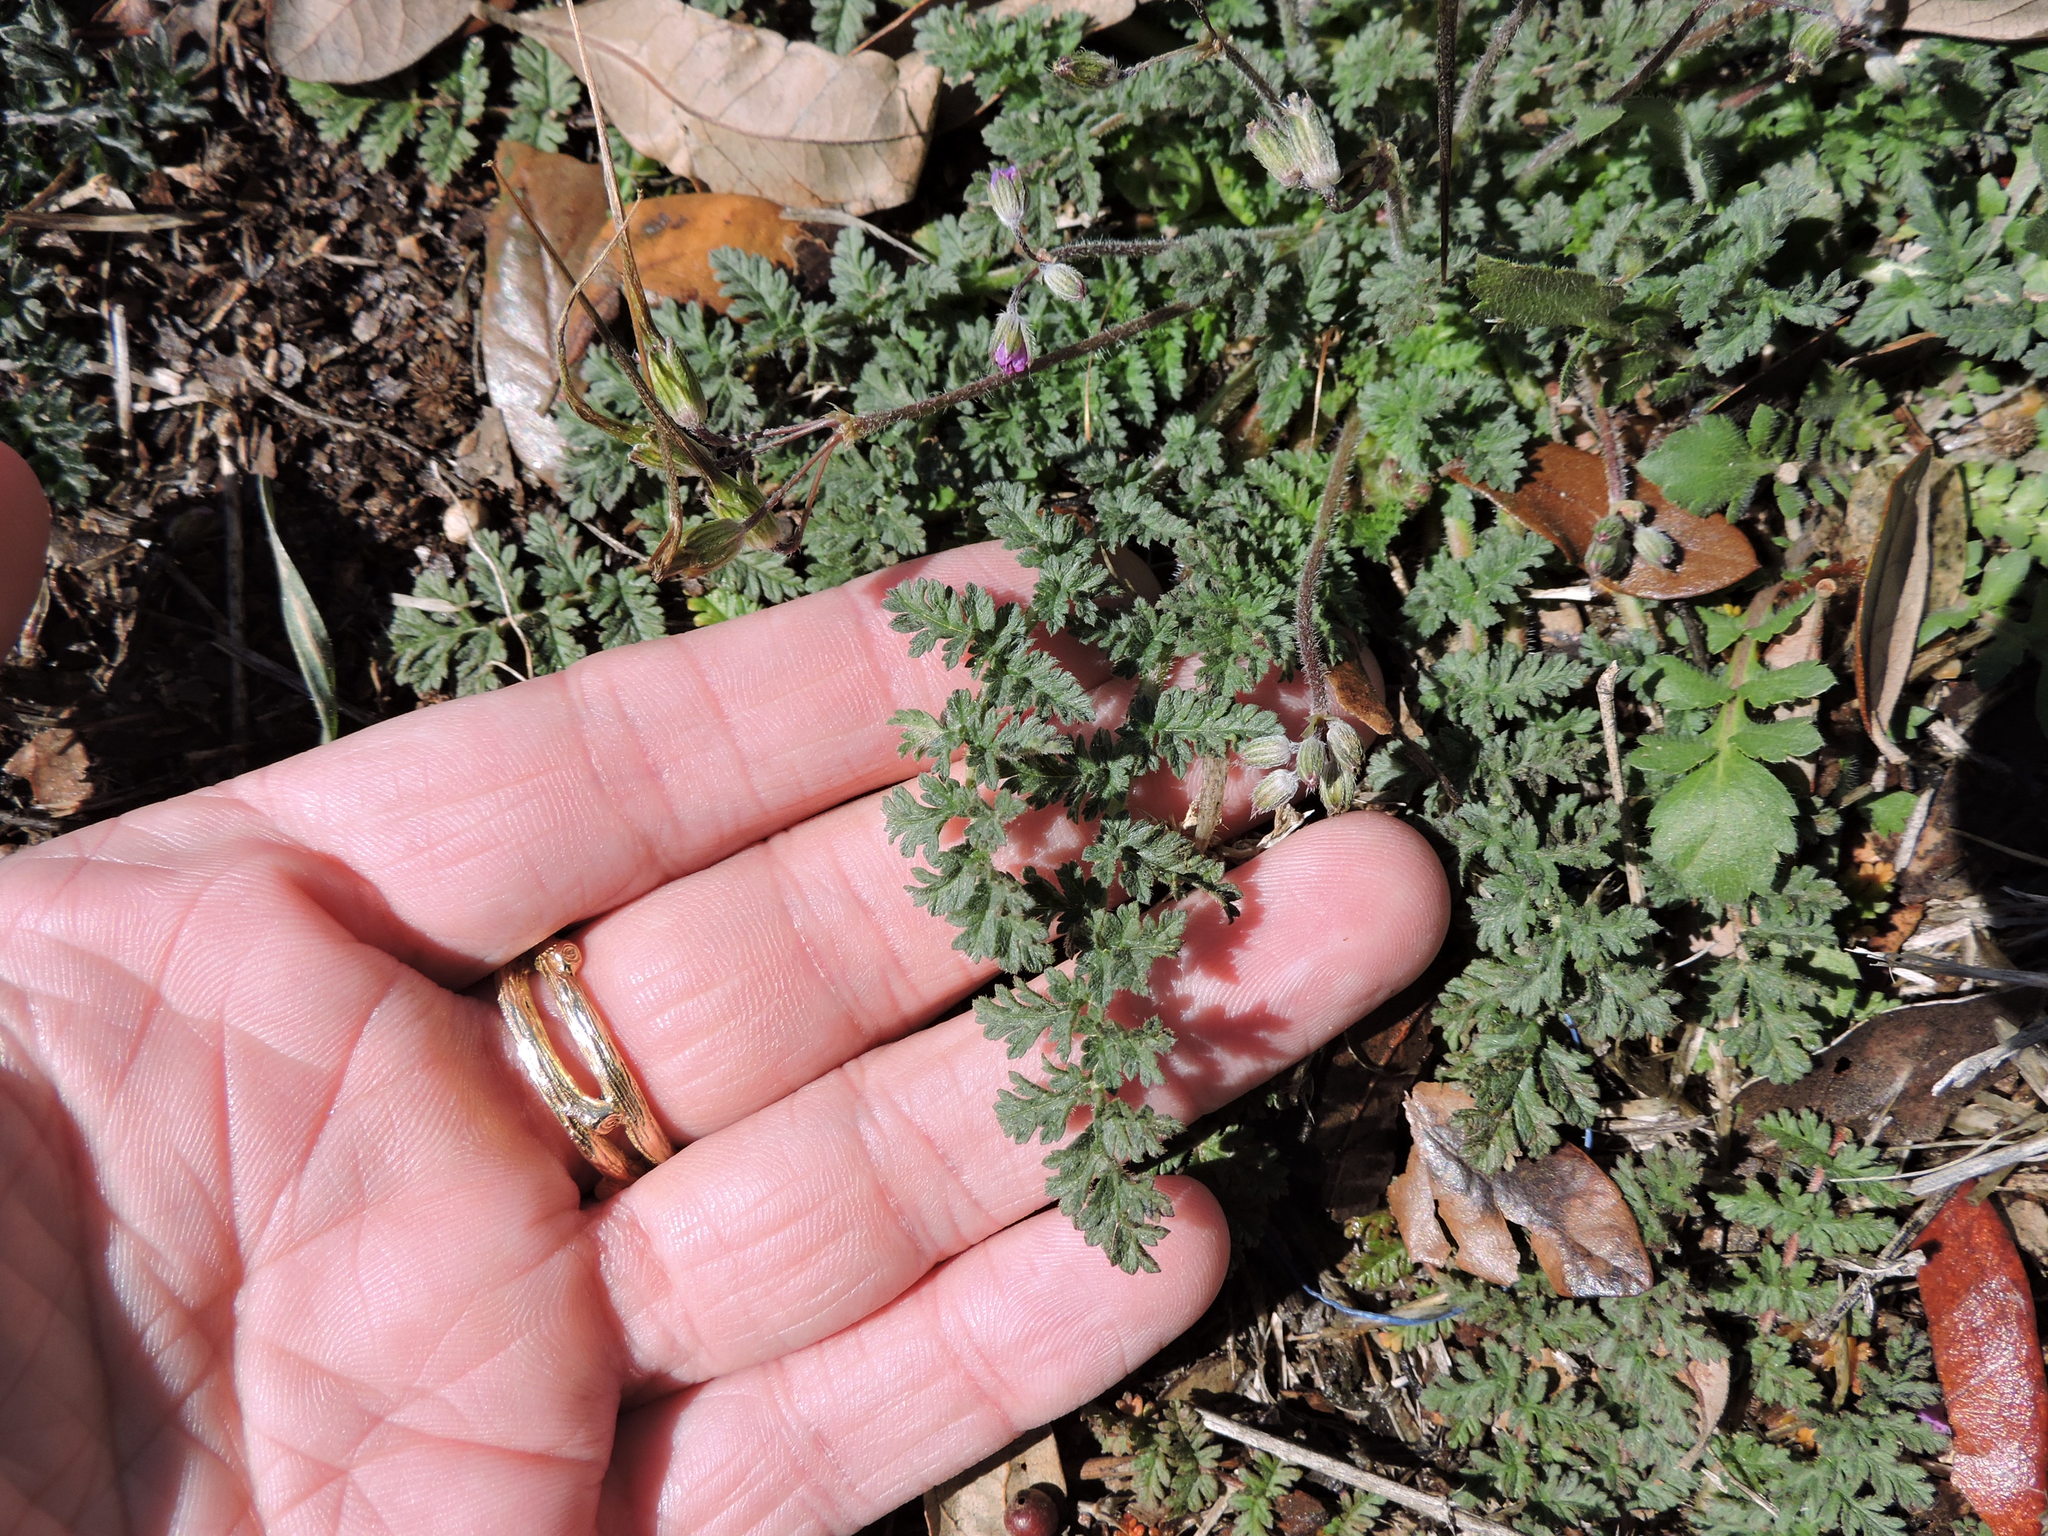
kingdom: Plantae
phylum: Tracheophyta
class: Magnoliopsida
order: Geraniales
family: Geraniaceae
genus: Erodium
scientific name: Erodium cicutarium
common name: Common stork's-bill
